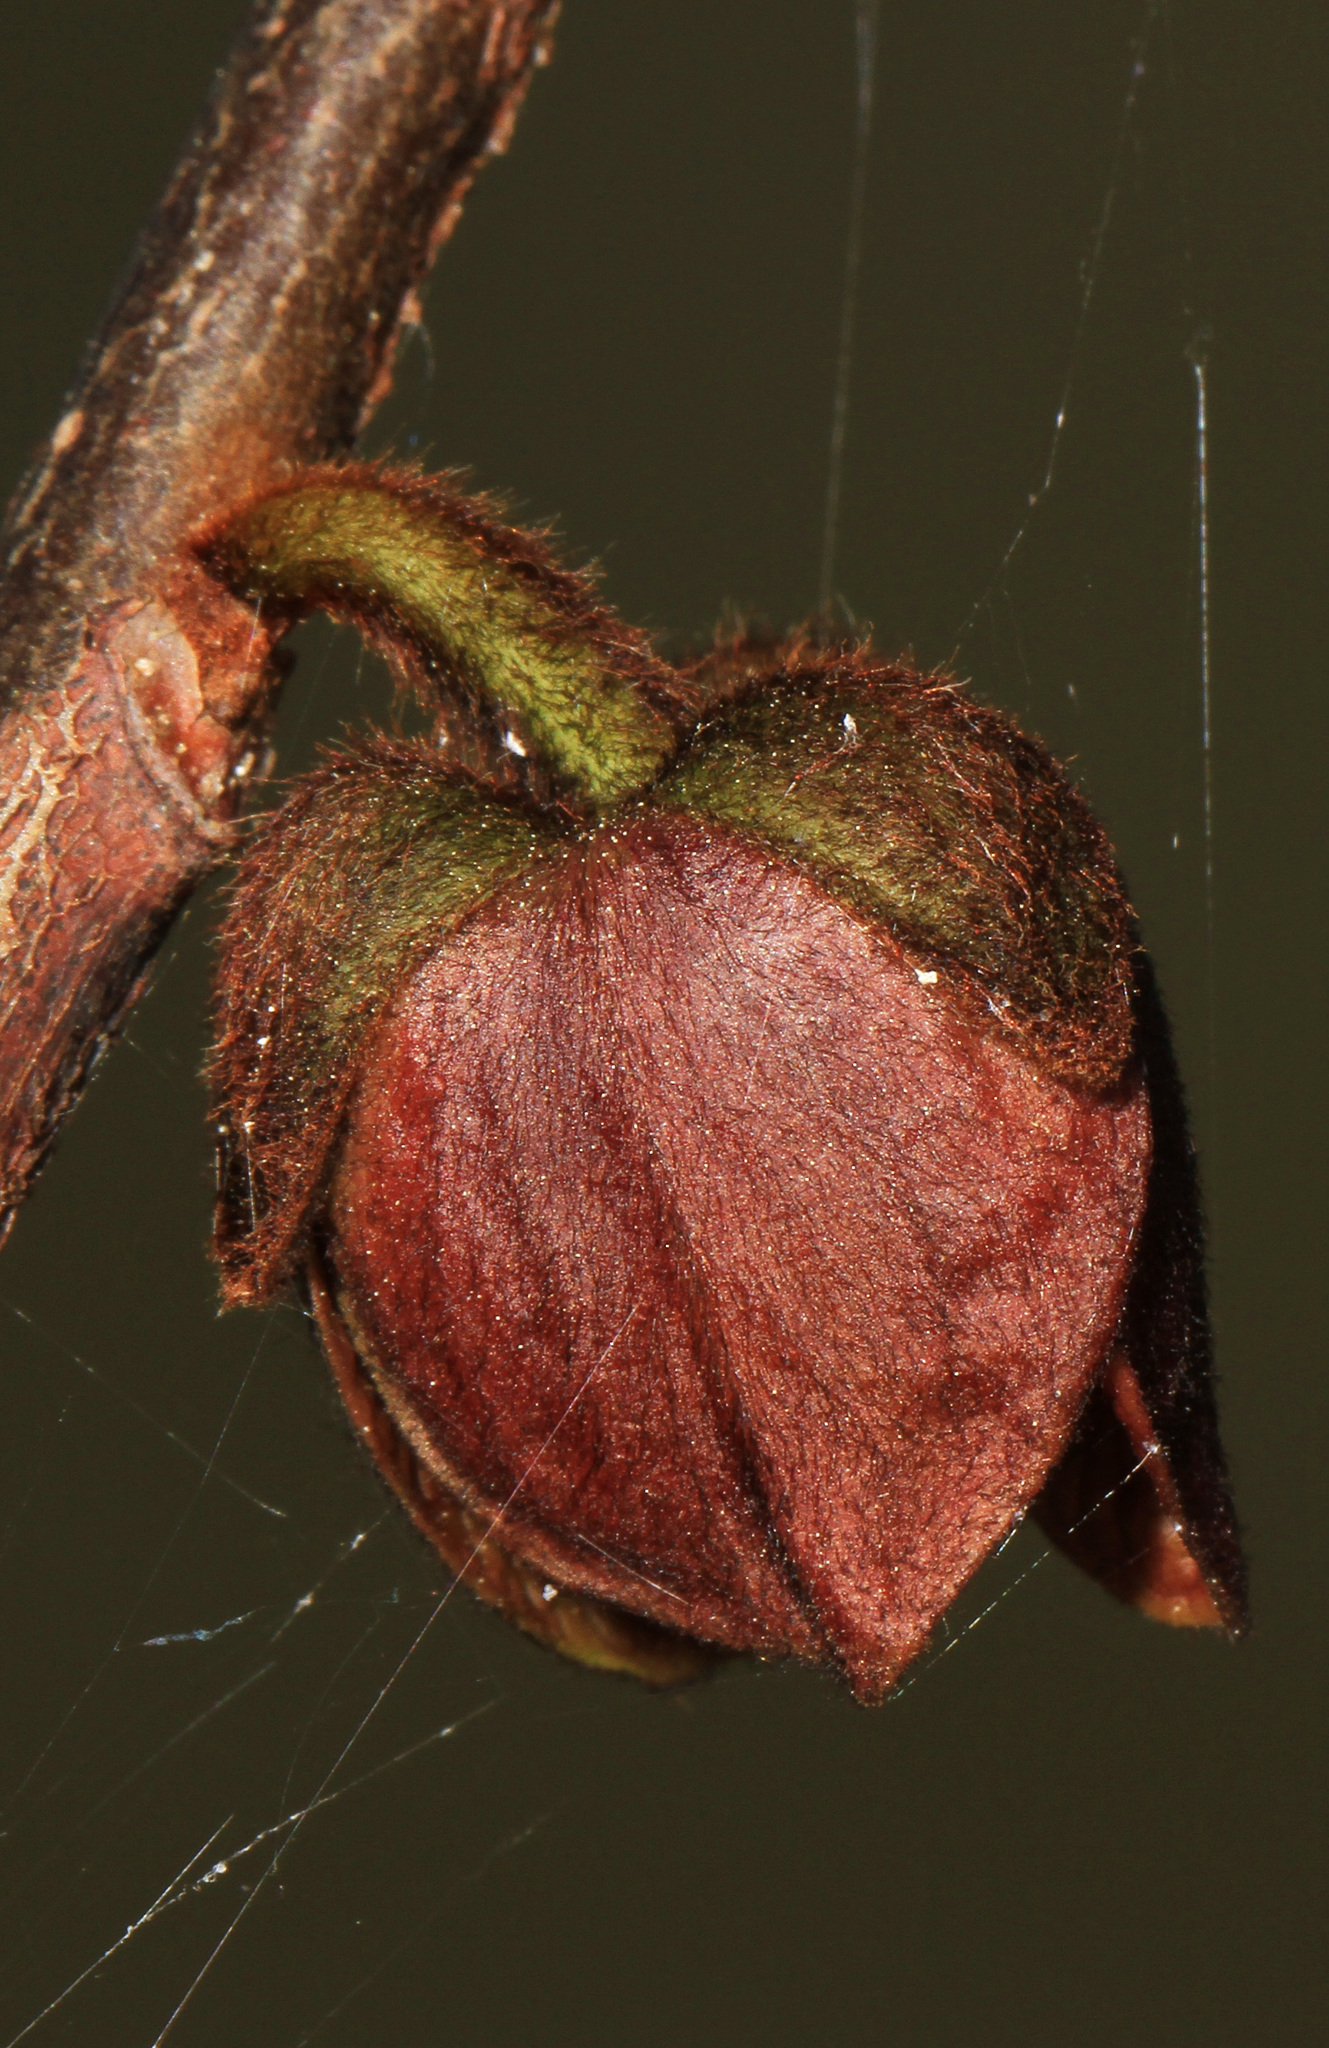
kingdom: Plantae
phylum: Tracheophyta
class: Magnoliopsida
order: Magnoliales
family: Annonaceae
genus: Asimina
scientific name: Asimina triloba
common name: Dog-banana
